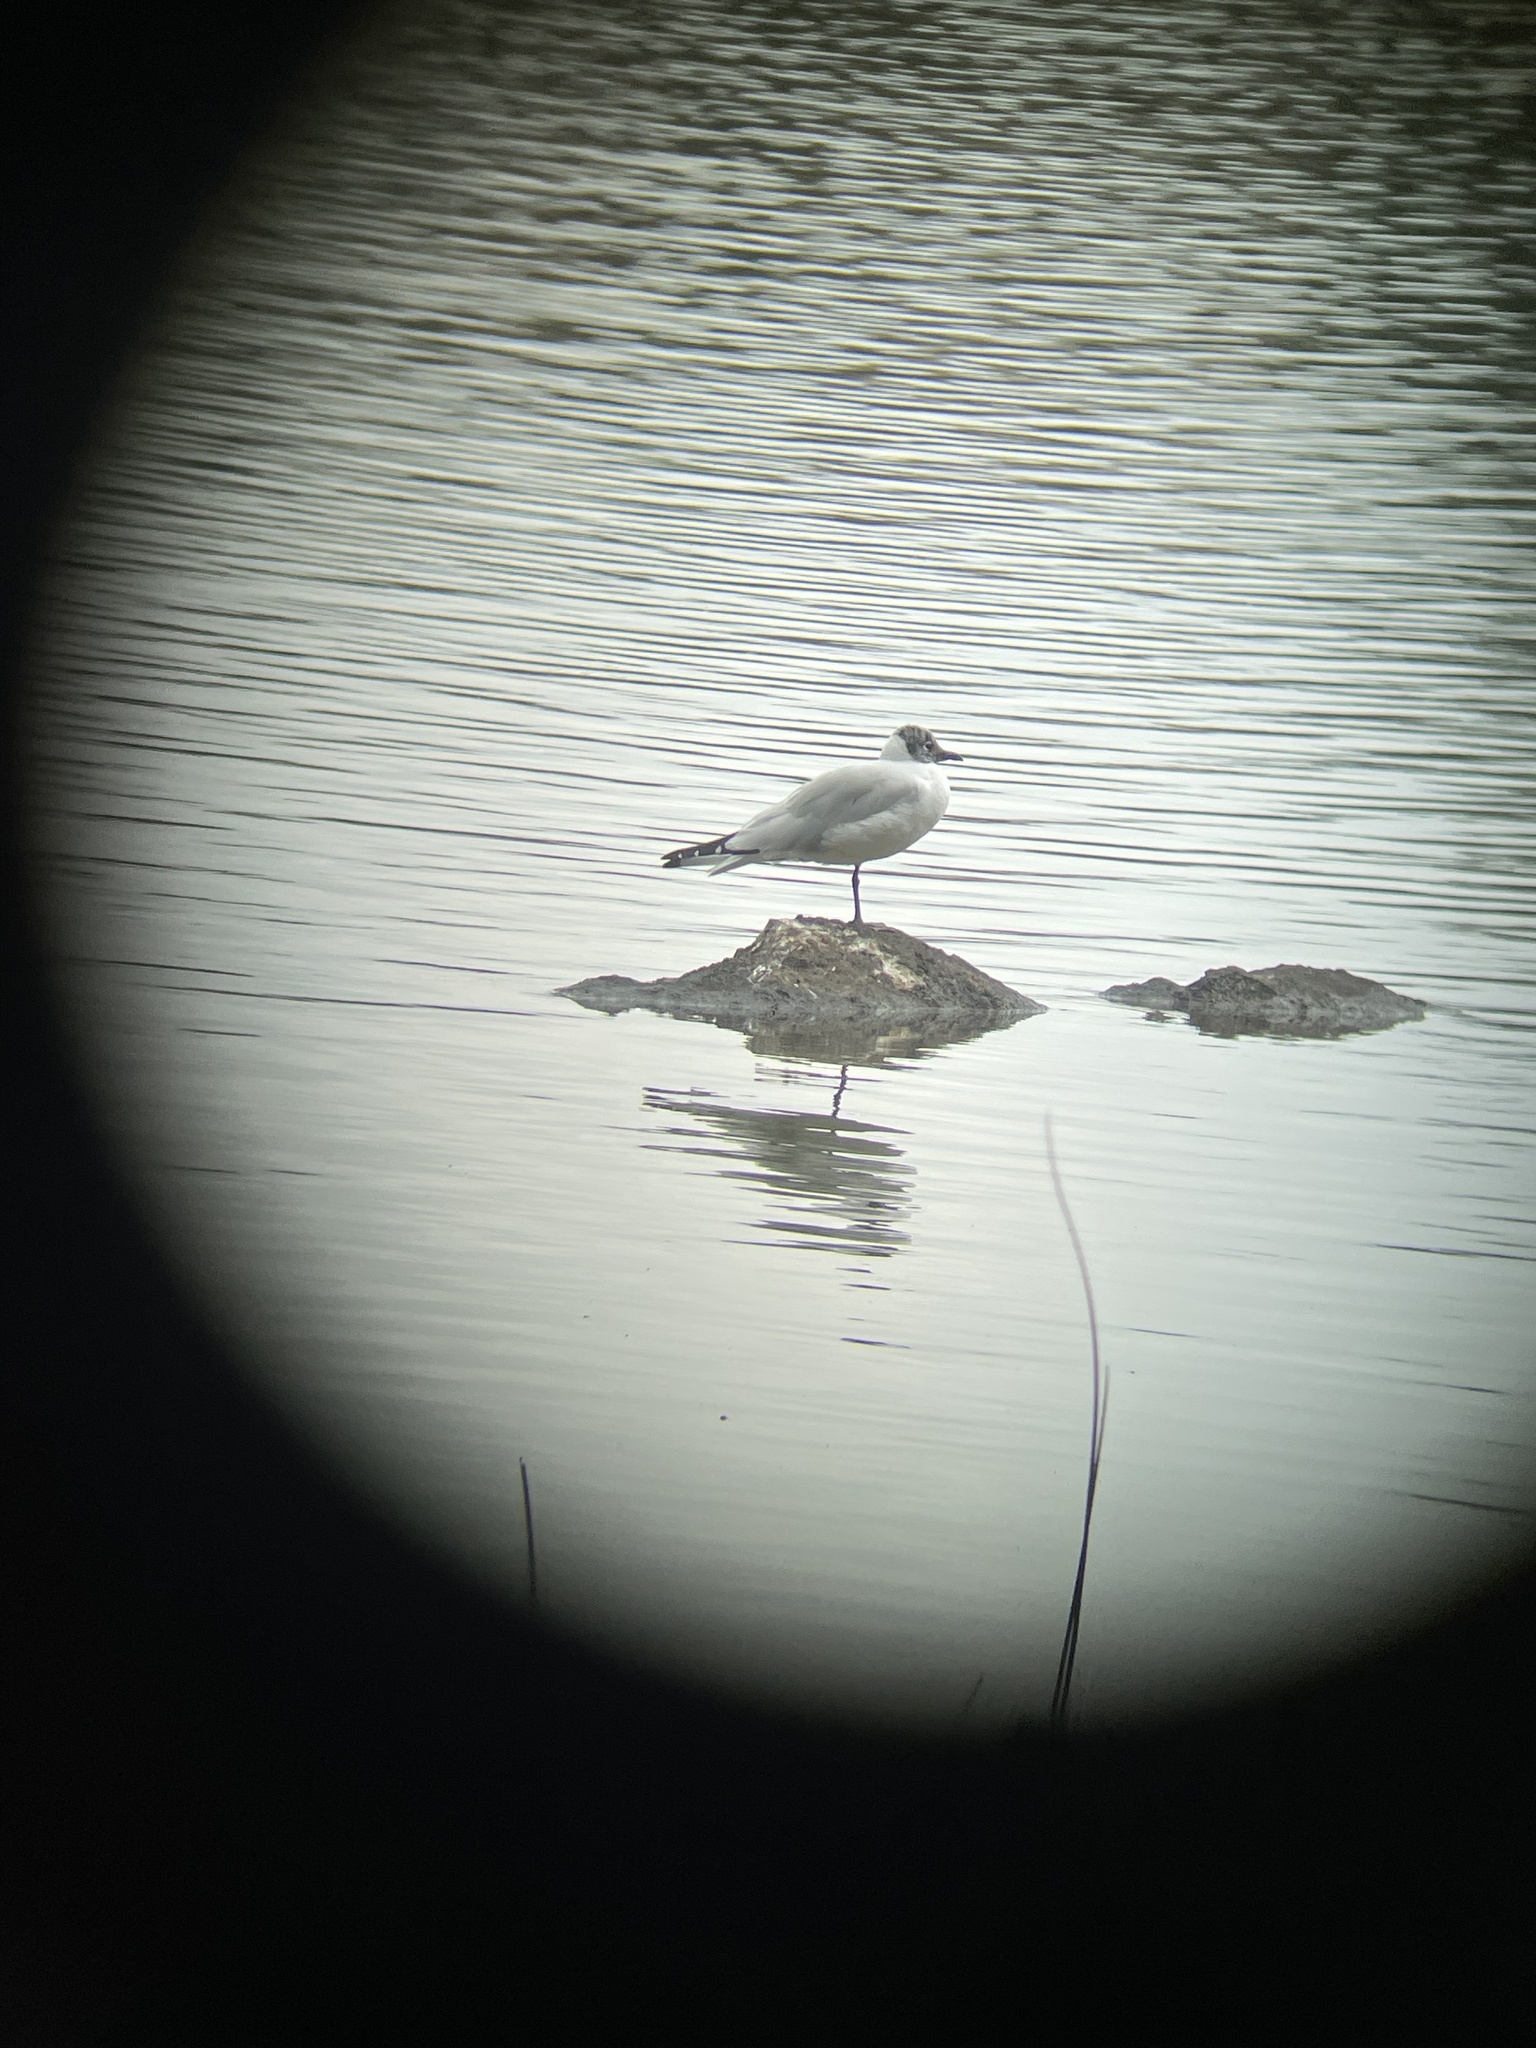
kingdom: Animalia
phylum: Chordata
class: Aves
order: Charadriiformes
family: Laridae
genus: Chroicocephalus
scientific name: Chroicocephalus serranus
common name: Andean gull
